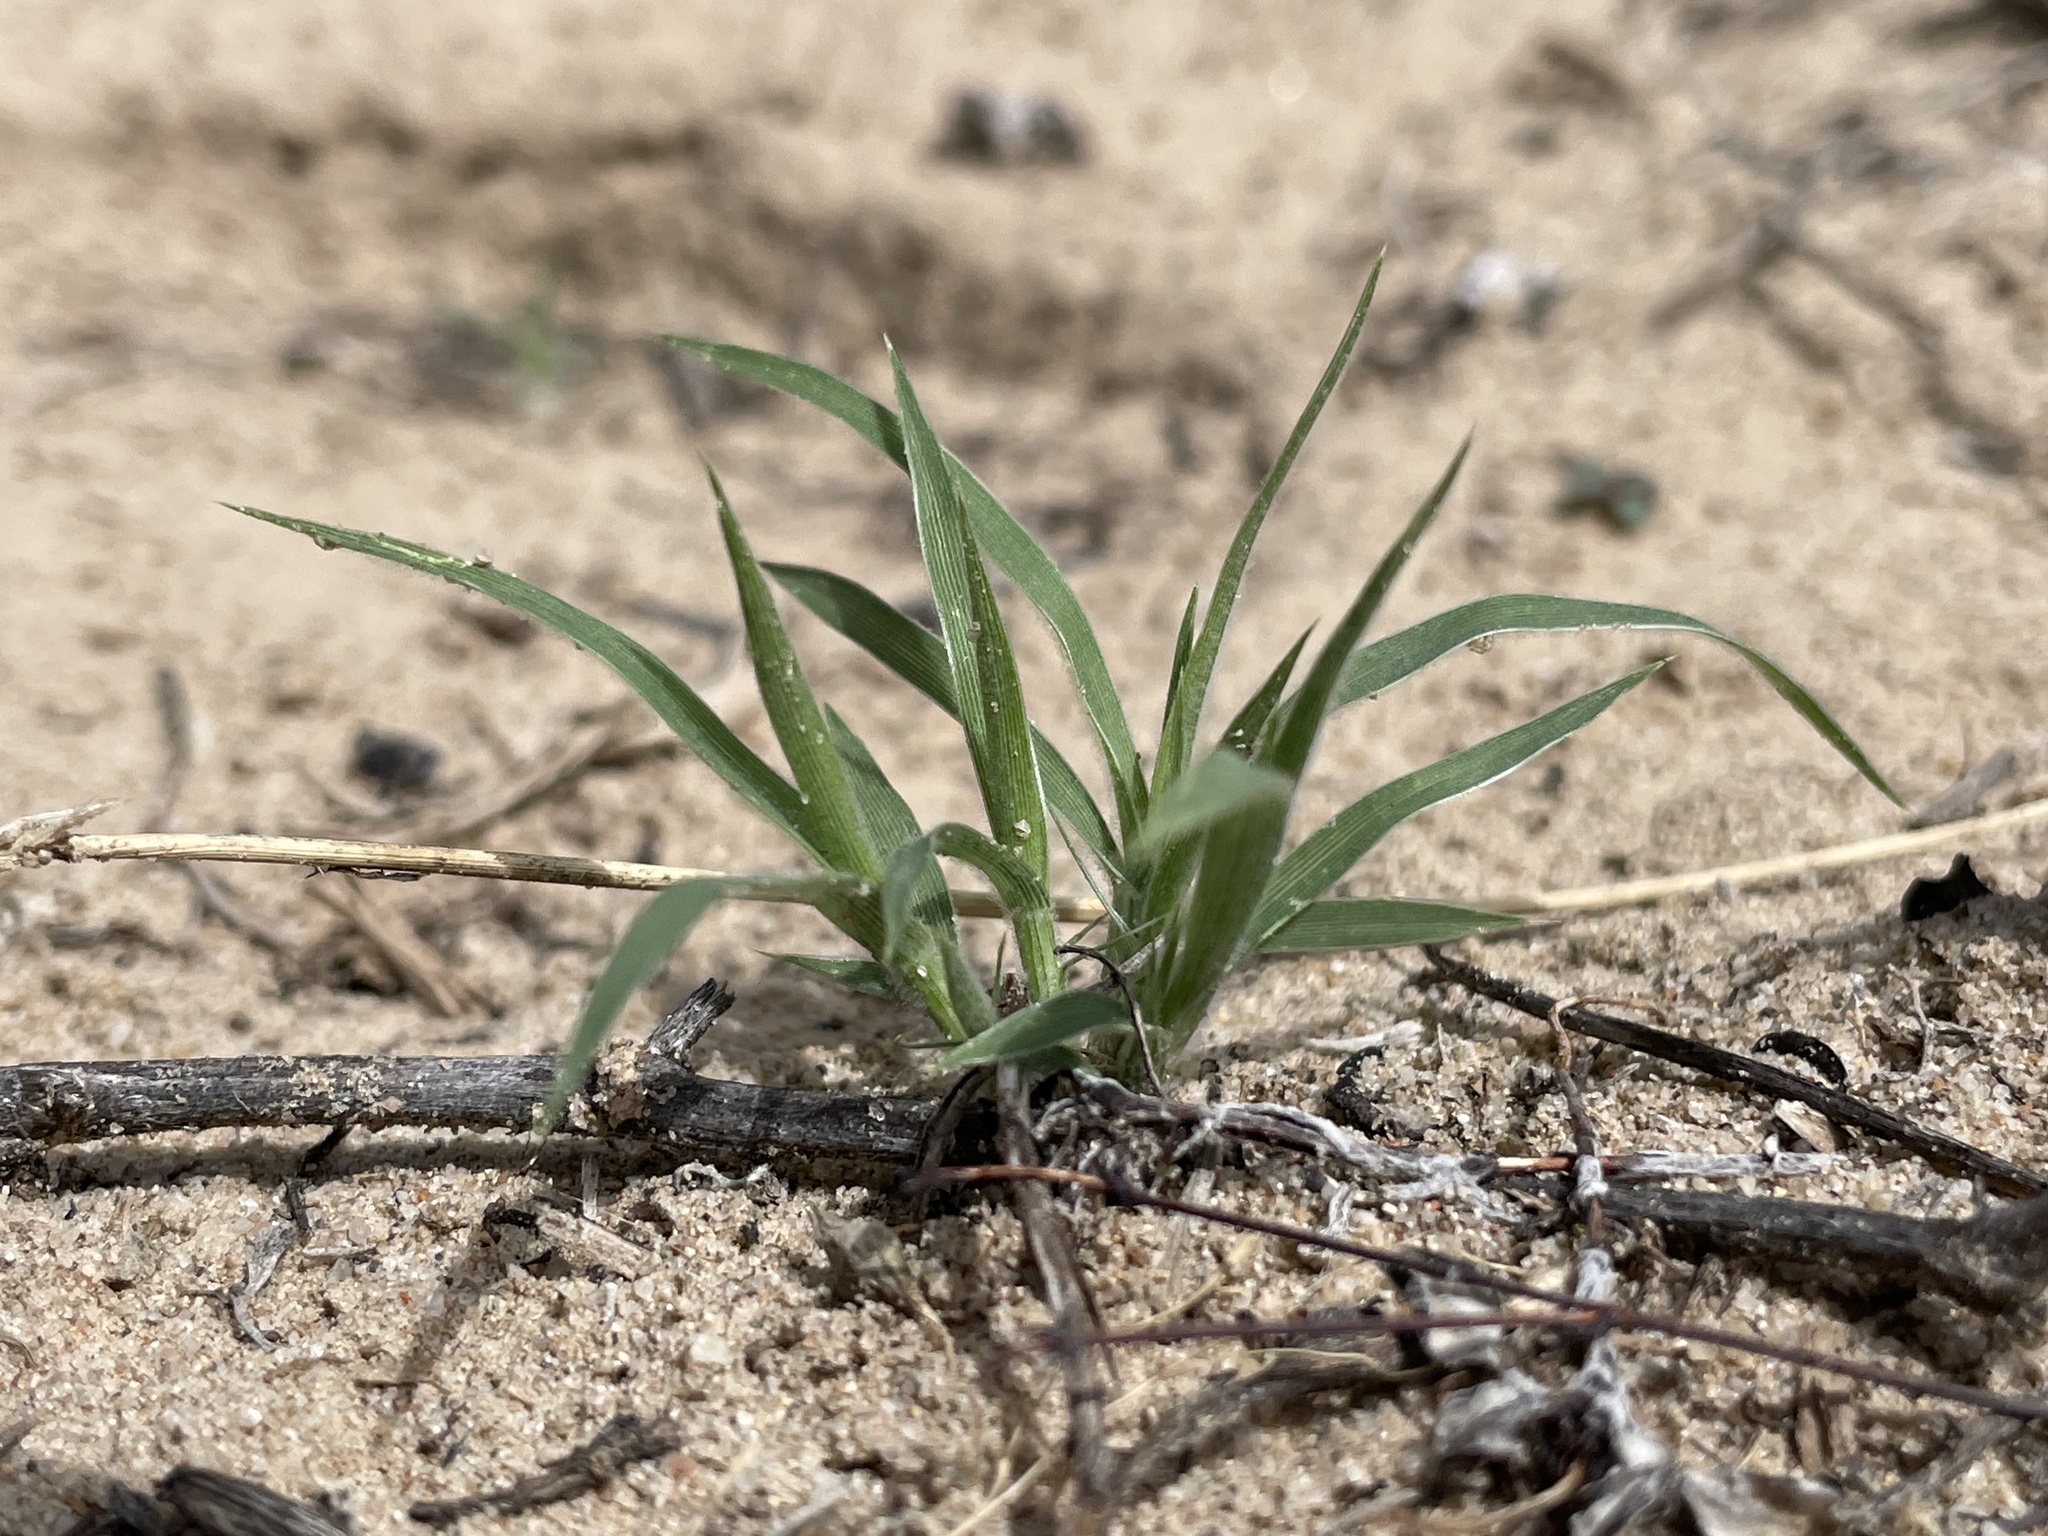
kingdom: Plantae
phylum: Tracheophyta
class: Liliopsida
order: Poales
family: Poaceae
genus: Munroa
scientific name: Munroa squarrosa
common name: False buffalo grass
